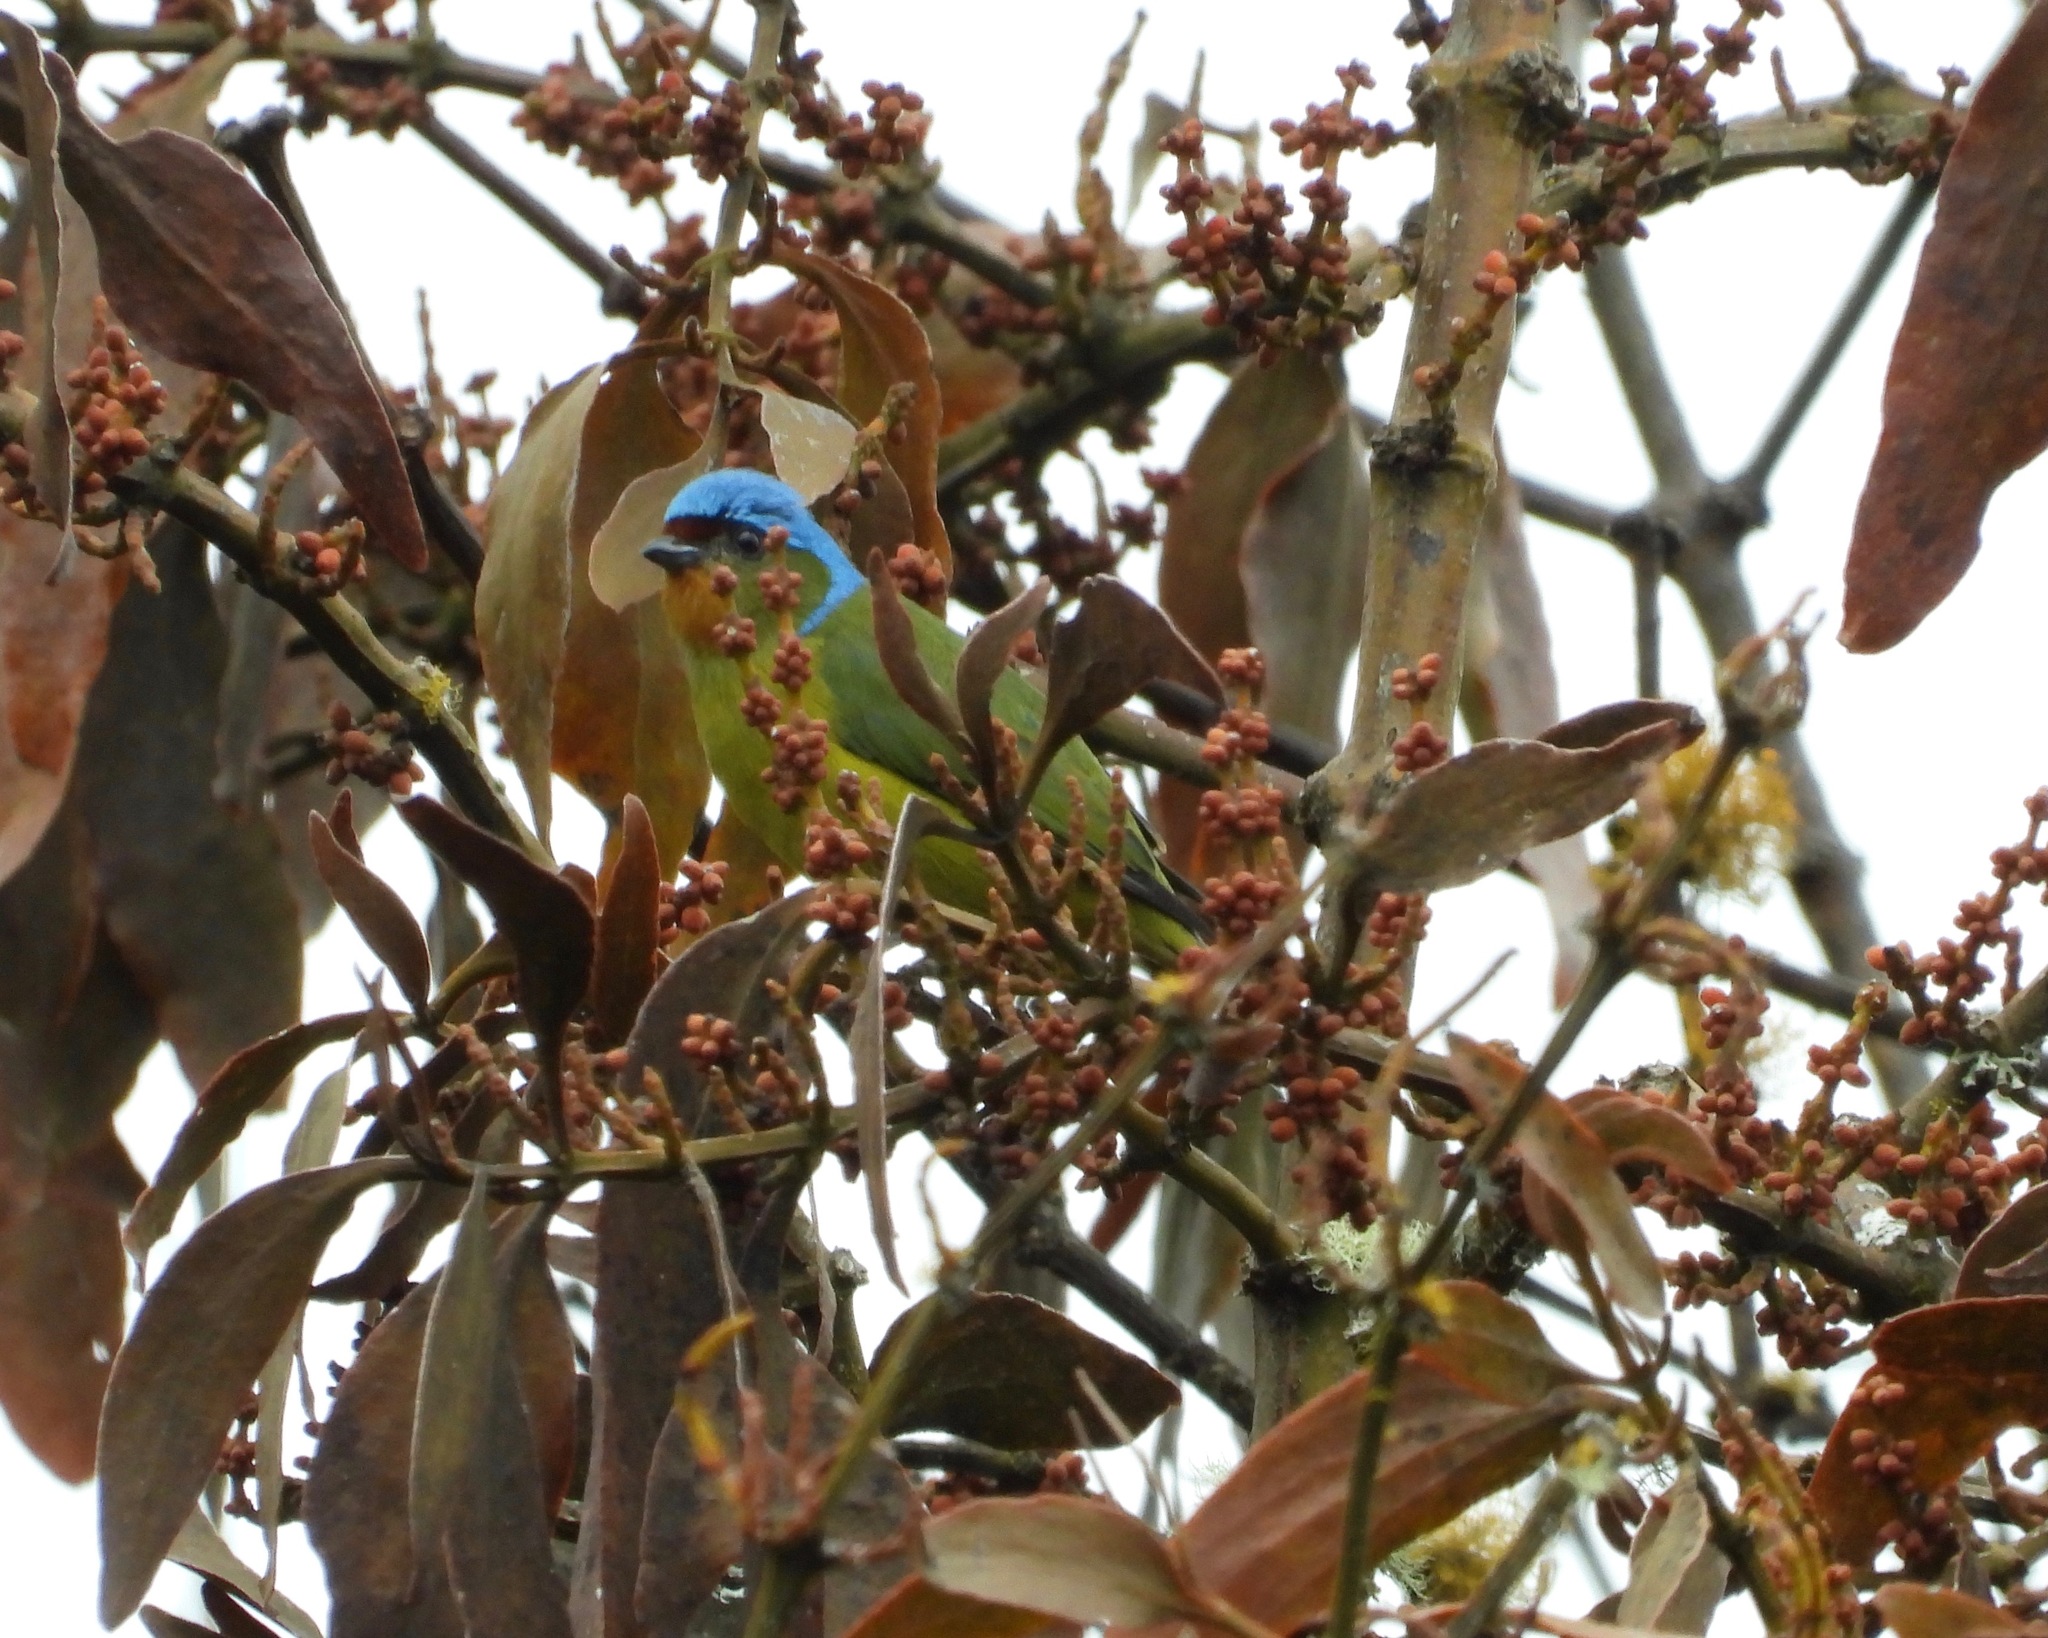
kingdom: Animalia
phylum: Chordata
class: Aves
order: Passeriformes
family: Fringillidae
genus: Euphonia
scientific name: Euphonia elegantissima
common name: Elegant euphonia
